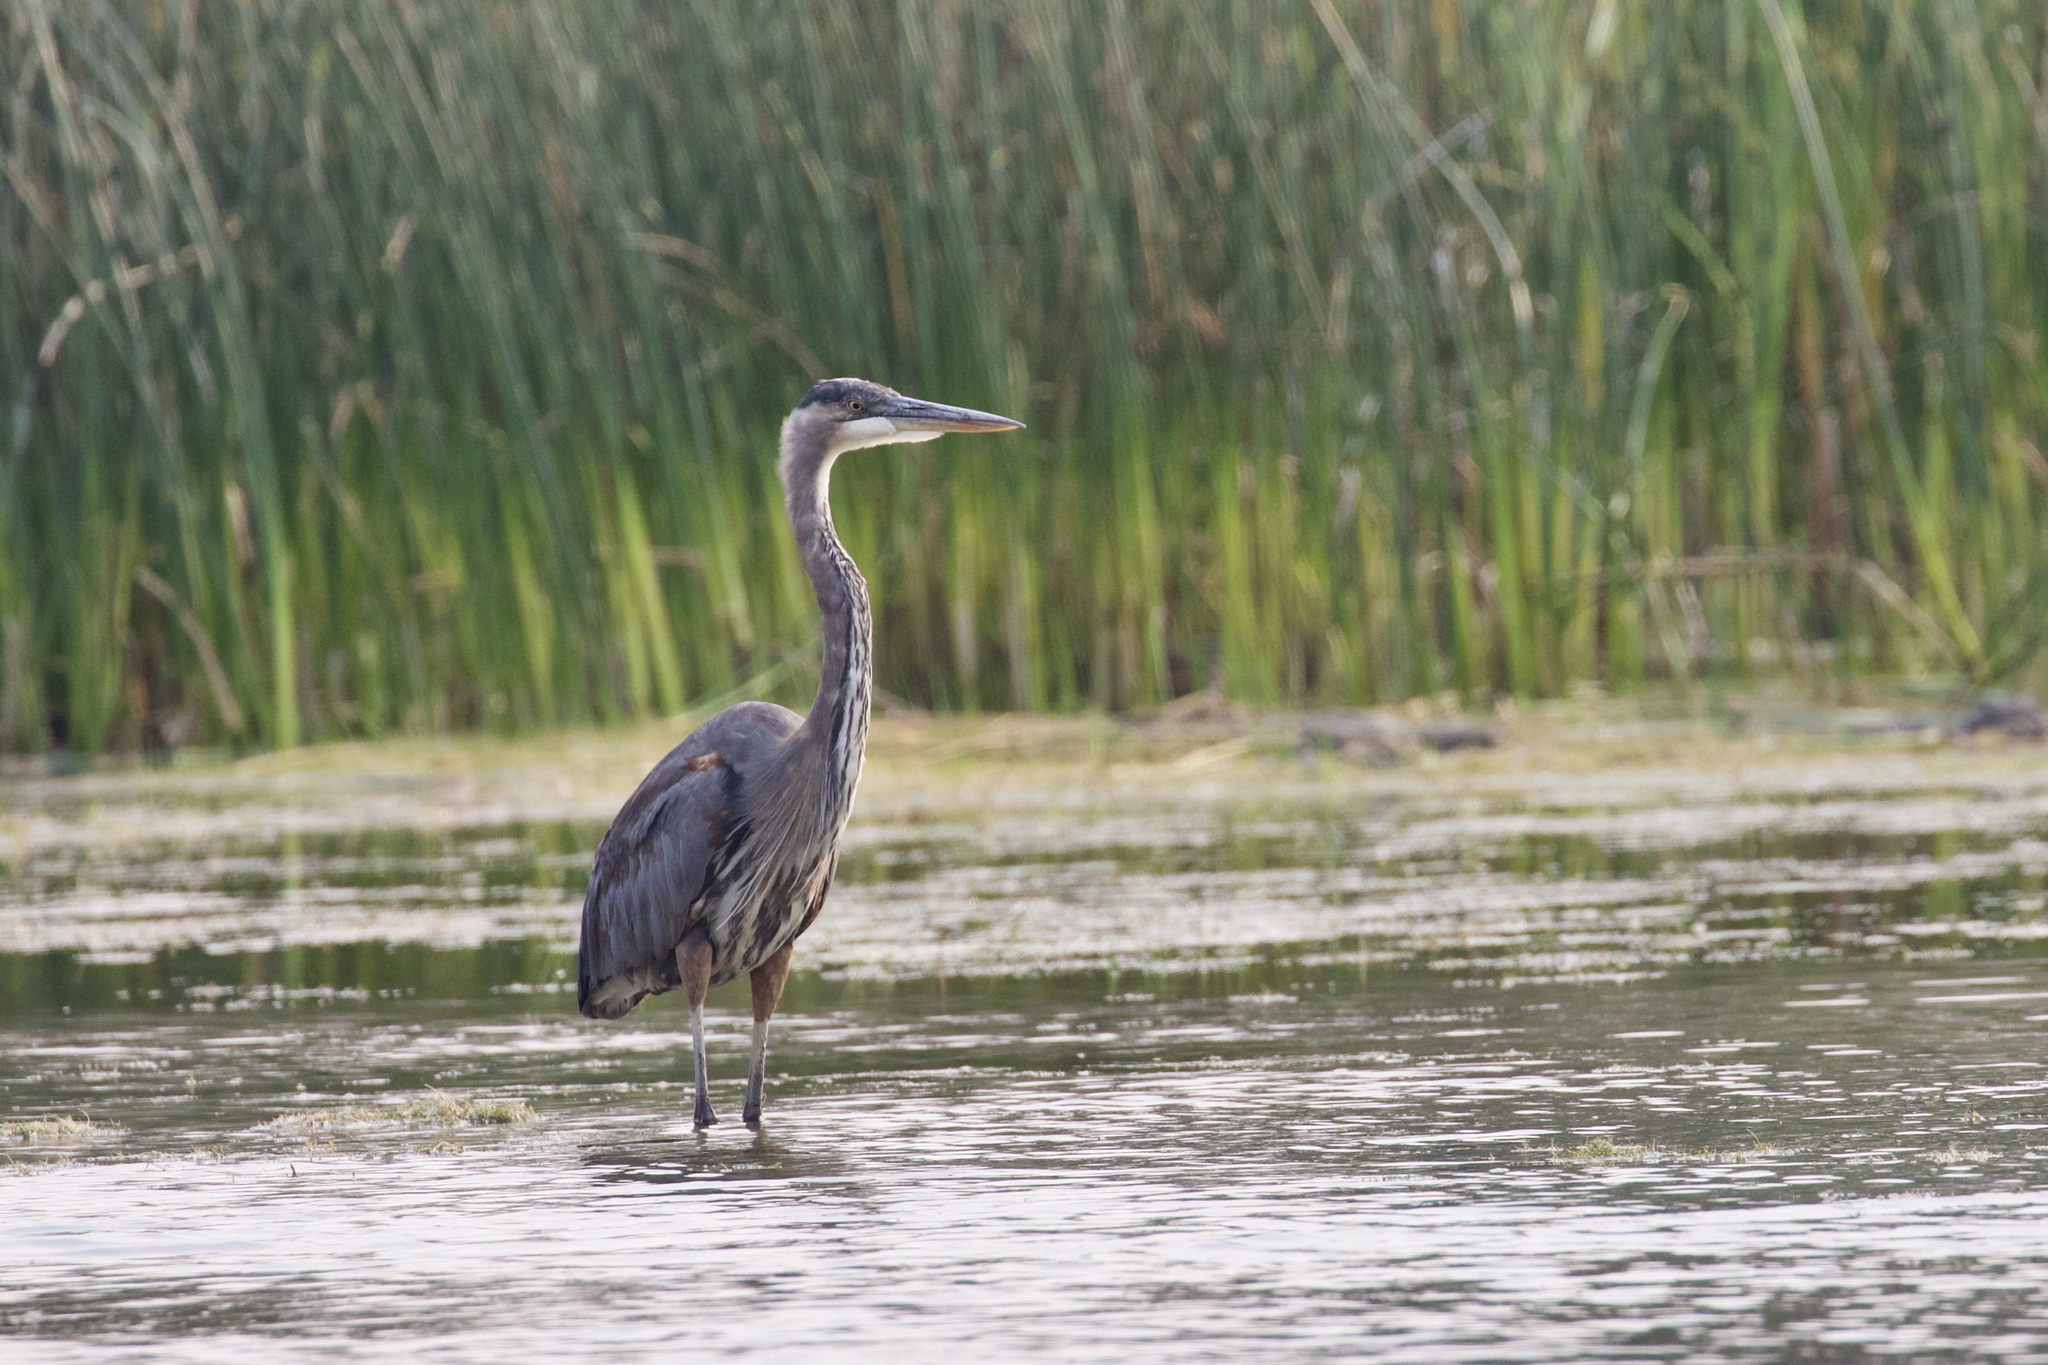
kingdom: Animalia
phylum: Chordata
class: Aves
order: Pelecaniformes
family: Ardeidae
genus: Ardea
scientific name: Ardea herodias
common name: Great blue heron
